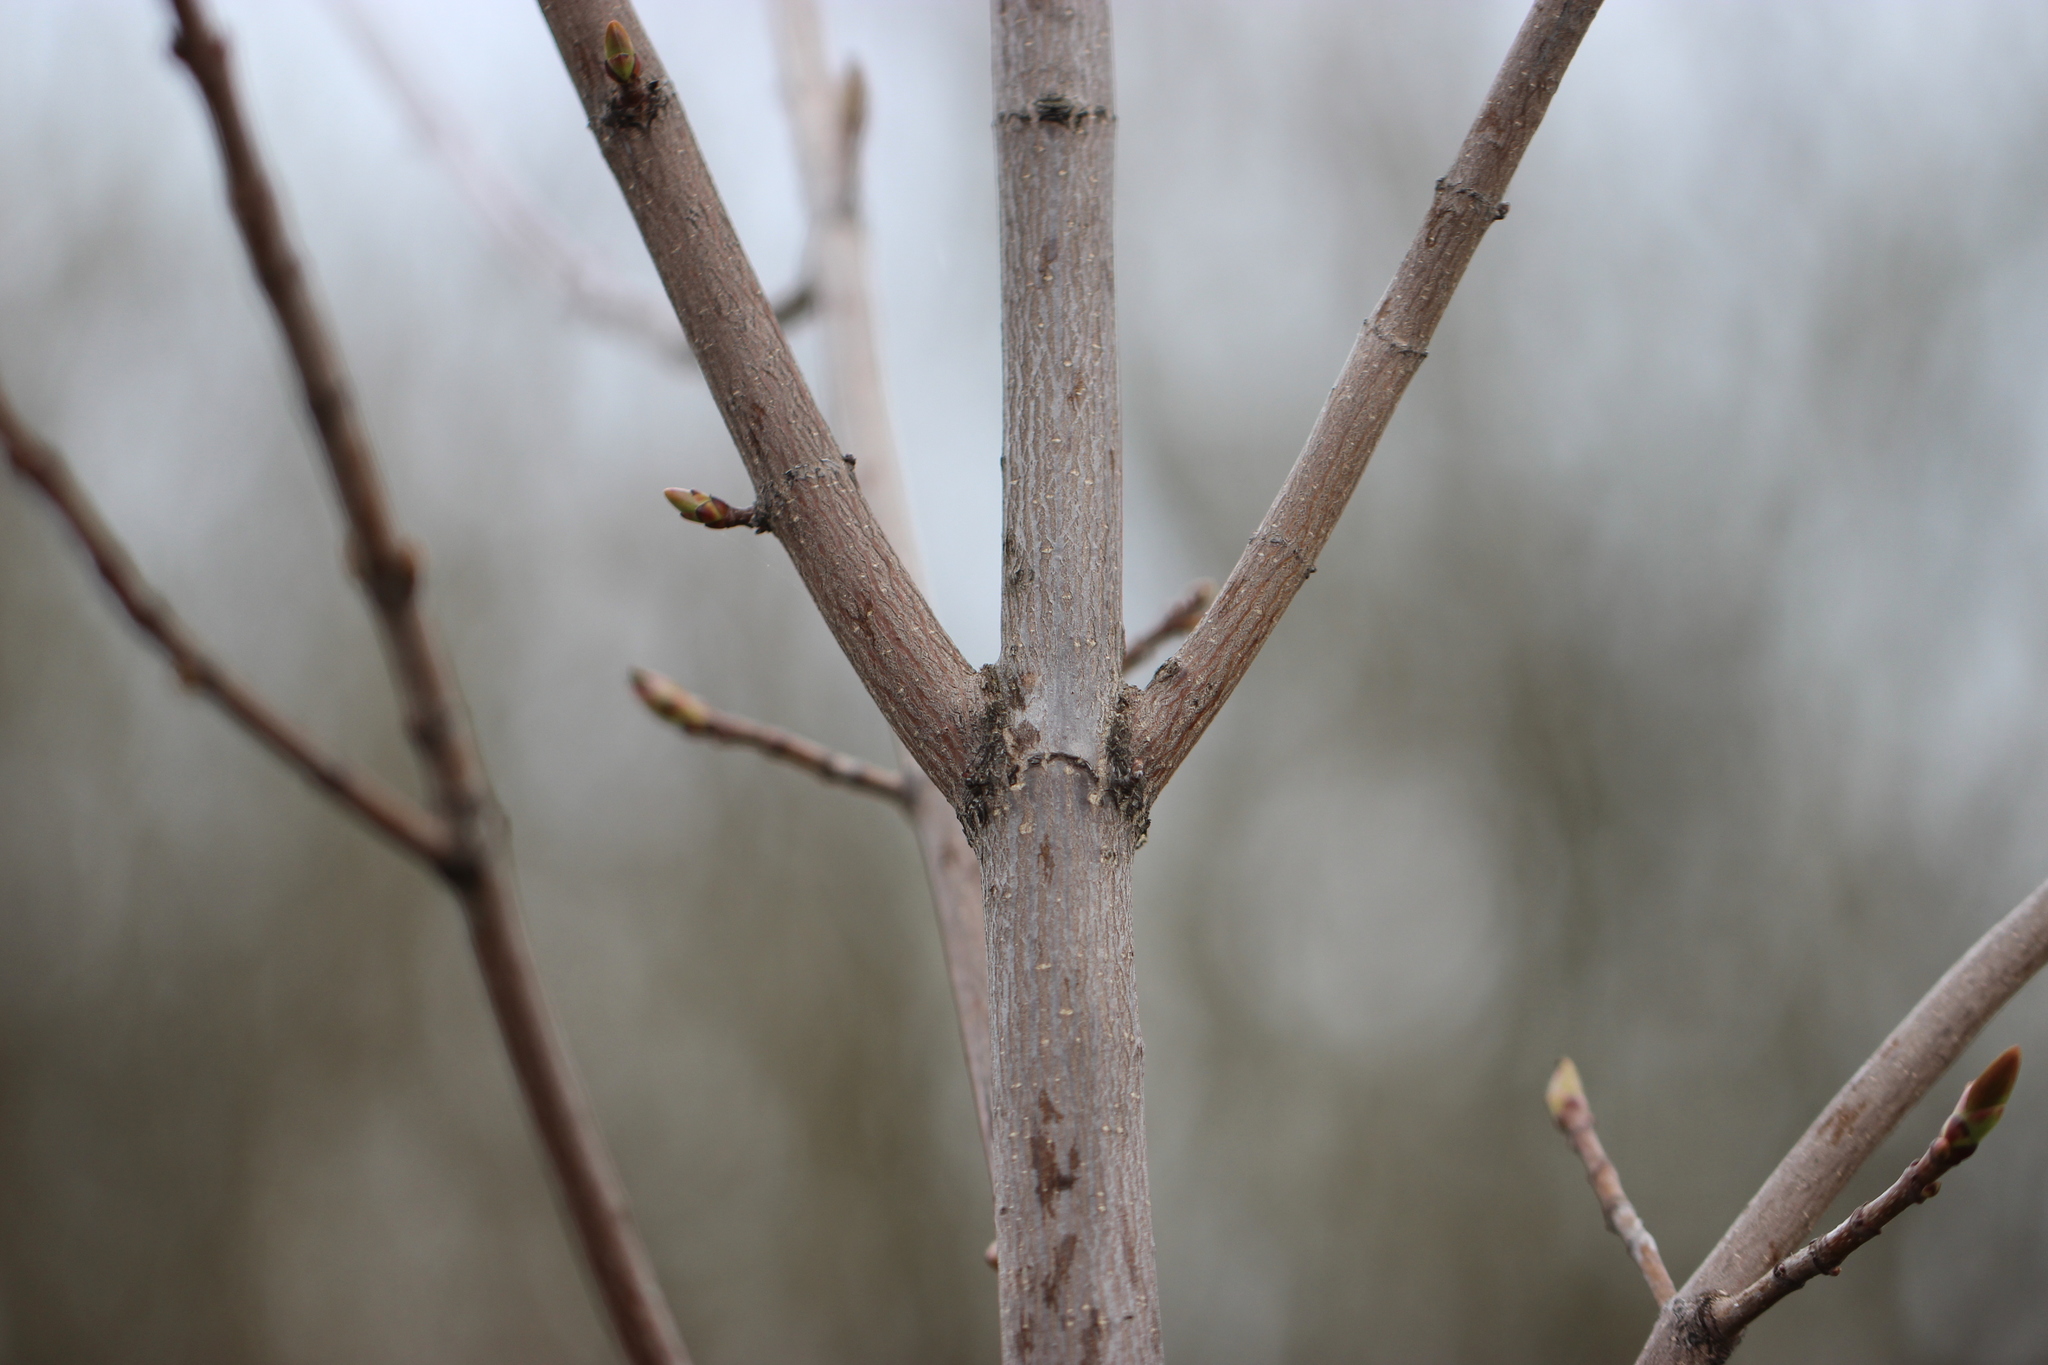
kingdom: Plantae
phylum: Tracheophyta
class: Magnoliopsida
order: Sapindales
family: Sapindaceae
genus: Acer
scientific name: Acer platanoides
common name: Norway maple
